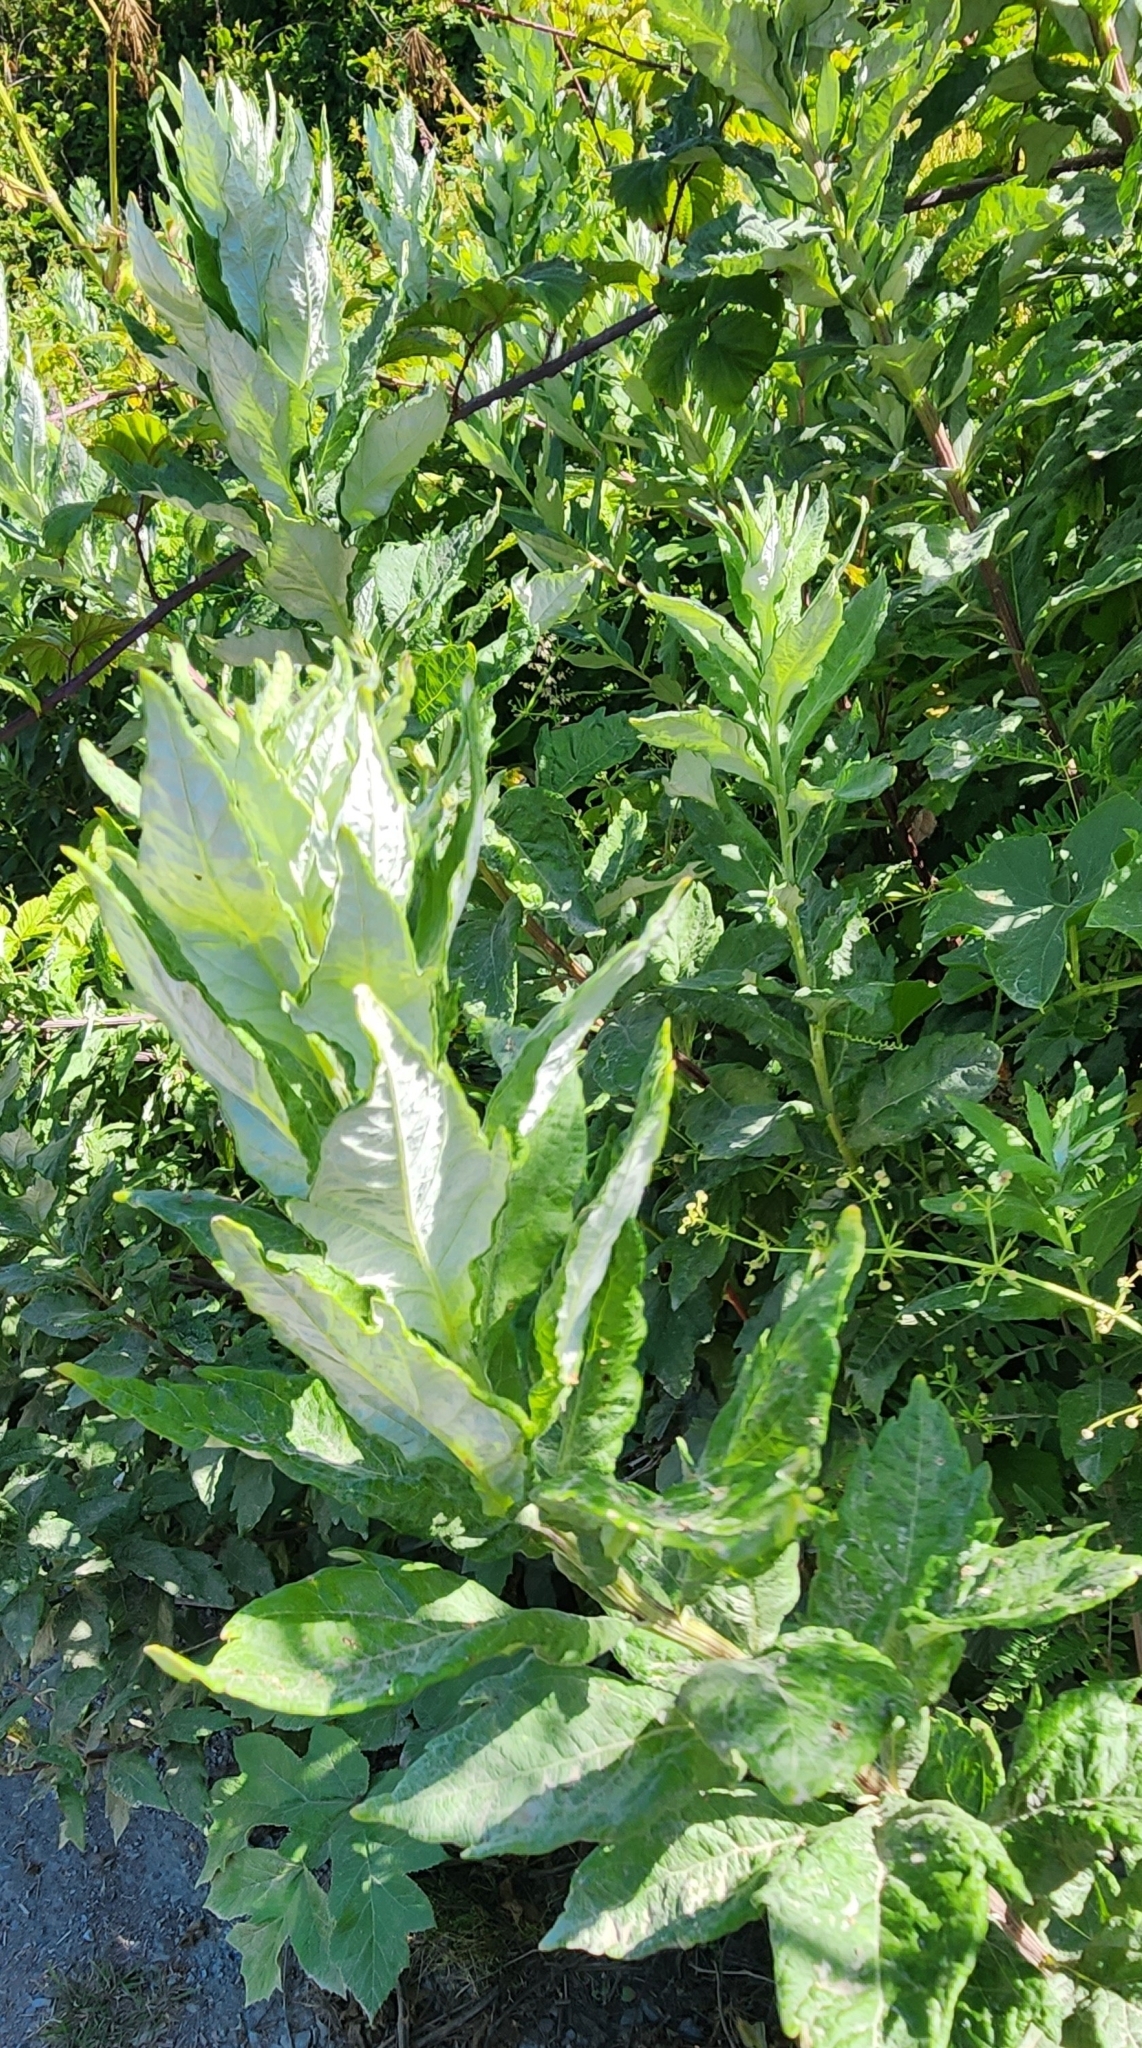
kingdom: Plantae
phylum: Tracheophyta
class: Magnoliopsida
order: Asterales
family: Asteraceae
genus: Artemisia
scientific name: Artemisia suksdorfii
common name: Suksdorf sagewort
